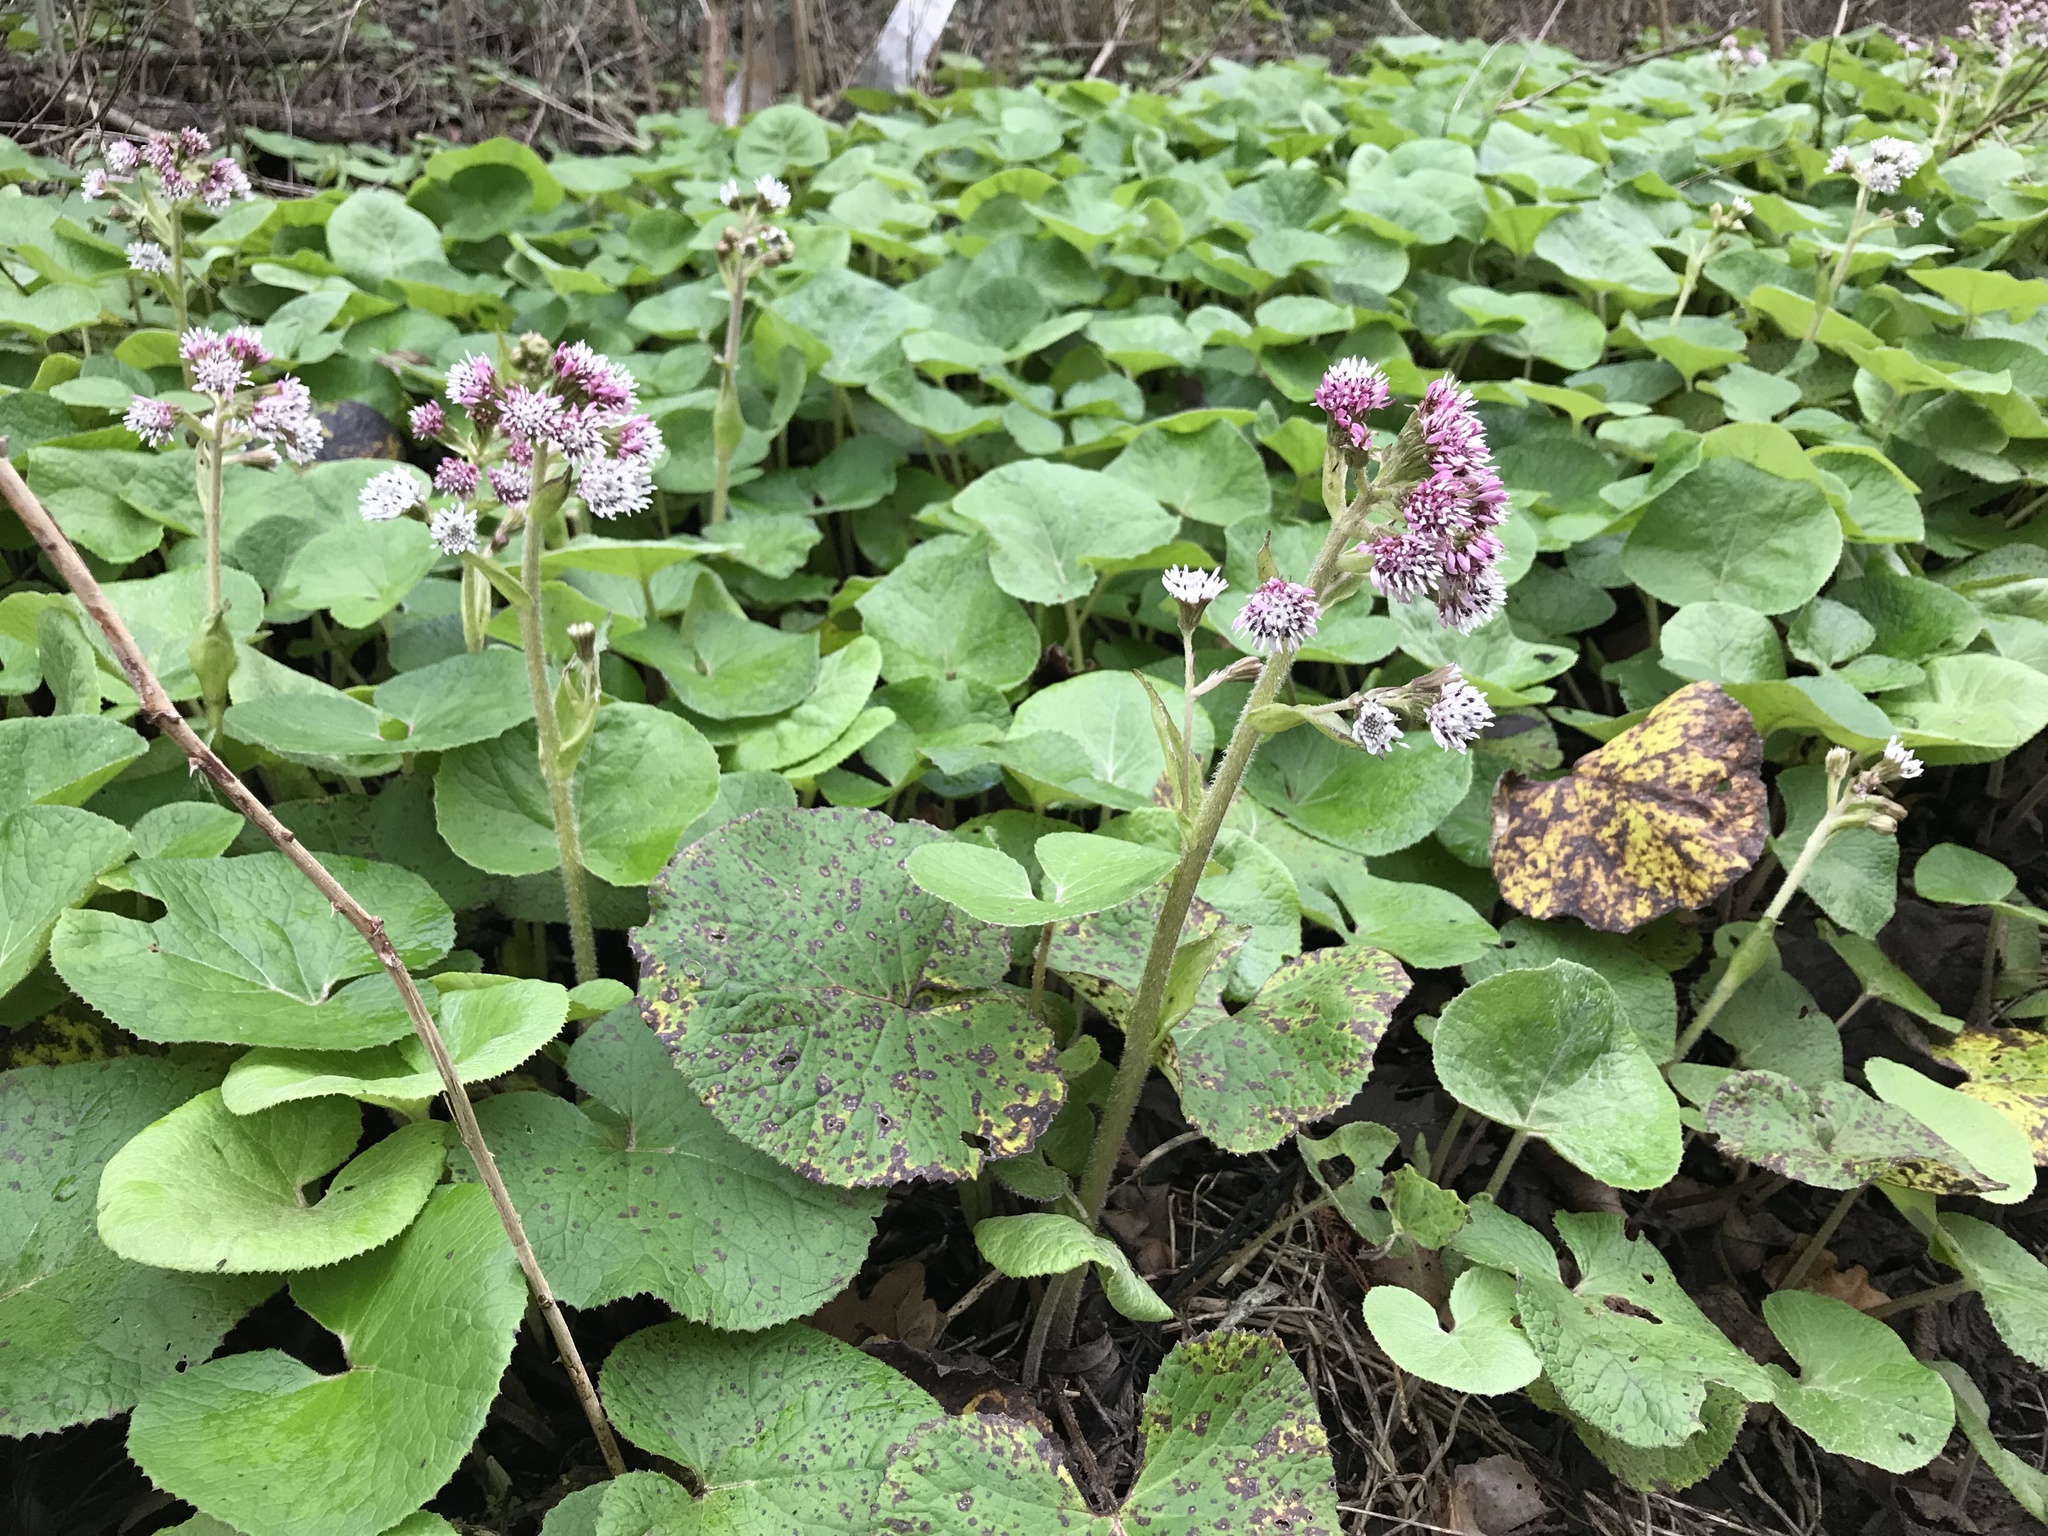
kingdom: Plantae
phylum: Tracheophyta
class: Magnoliopsida
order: Asterales
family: Asteraceae
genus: Petasites
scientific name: Petasites pyrenaicus
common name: Winter heliotrope
